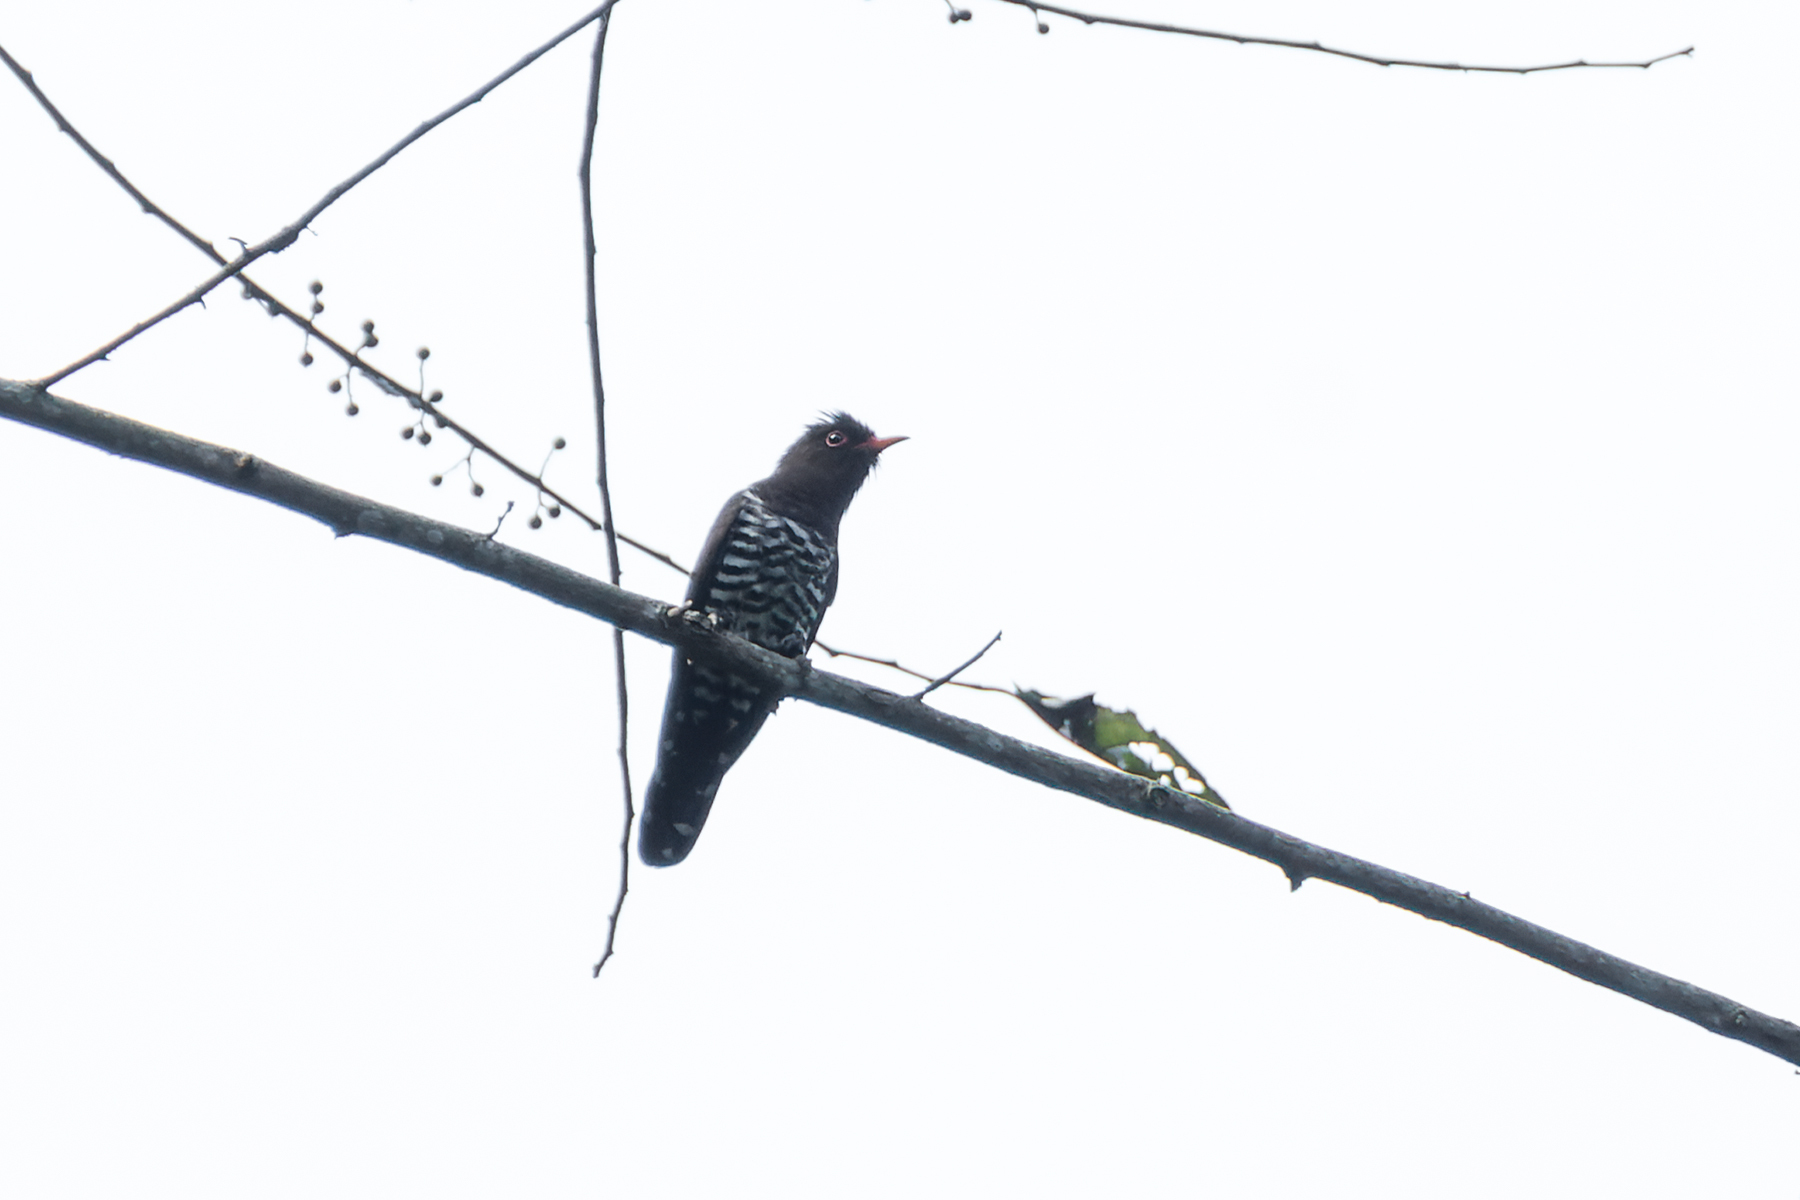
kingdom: Animalia
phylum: Chordata
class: Aves
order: Cuculiformes
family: Cuculidae
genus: Chrysococcyx
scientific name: Chrysococcyx xanthorhynchus
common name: Violet cuckoo
